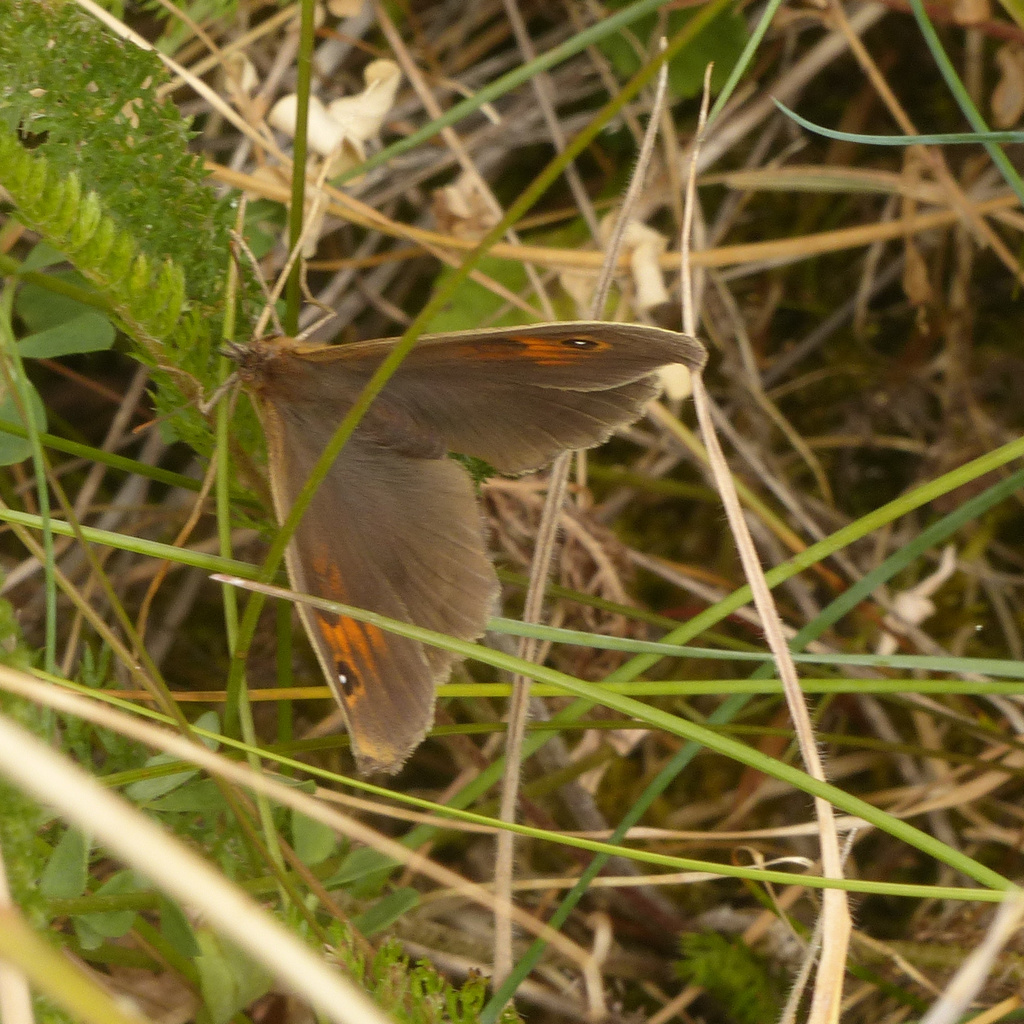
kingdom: Animalia
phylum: Arthropoda
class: Insecta
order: Lepidoptera
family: Nymphalidae
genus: Maniola
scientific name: Maniola jurtina
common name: Meadow brown
